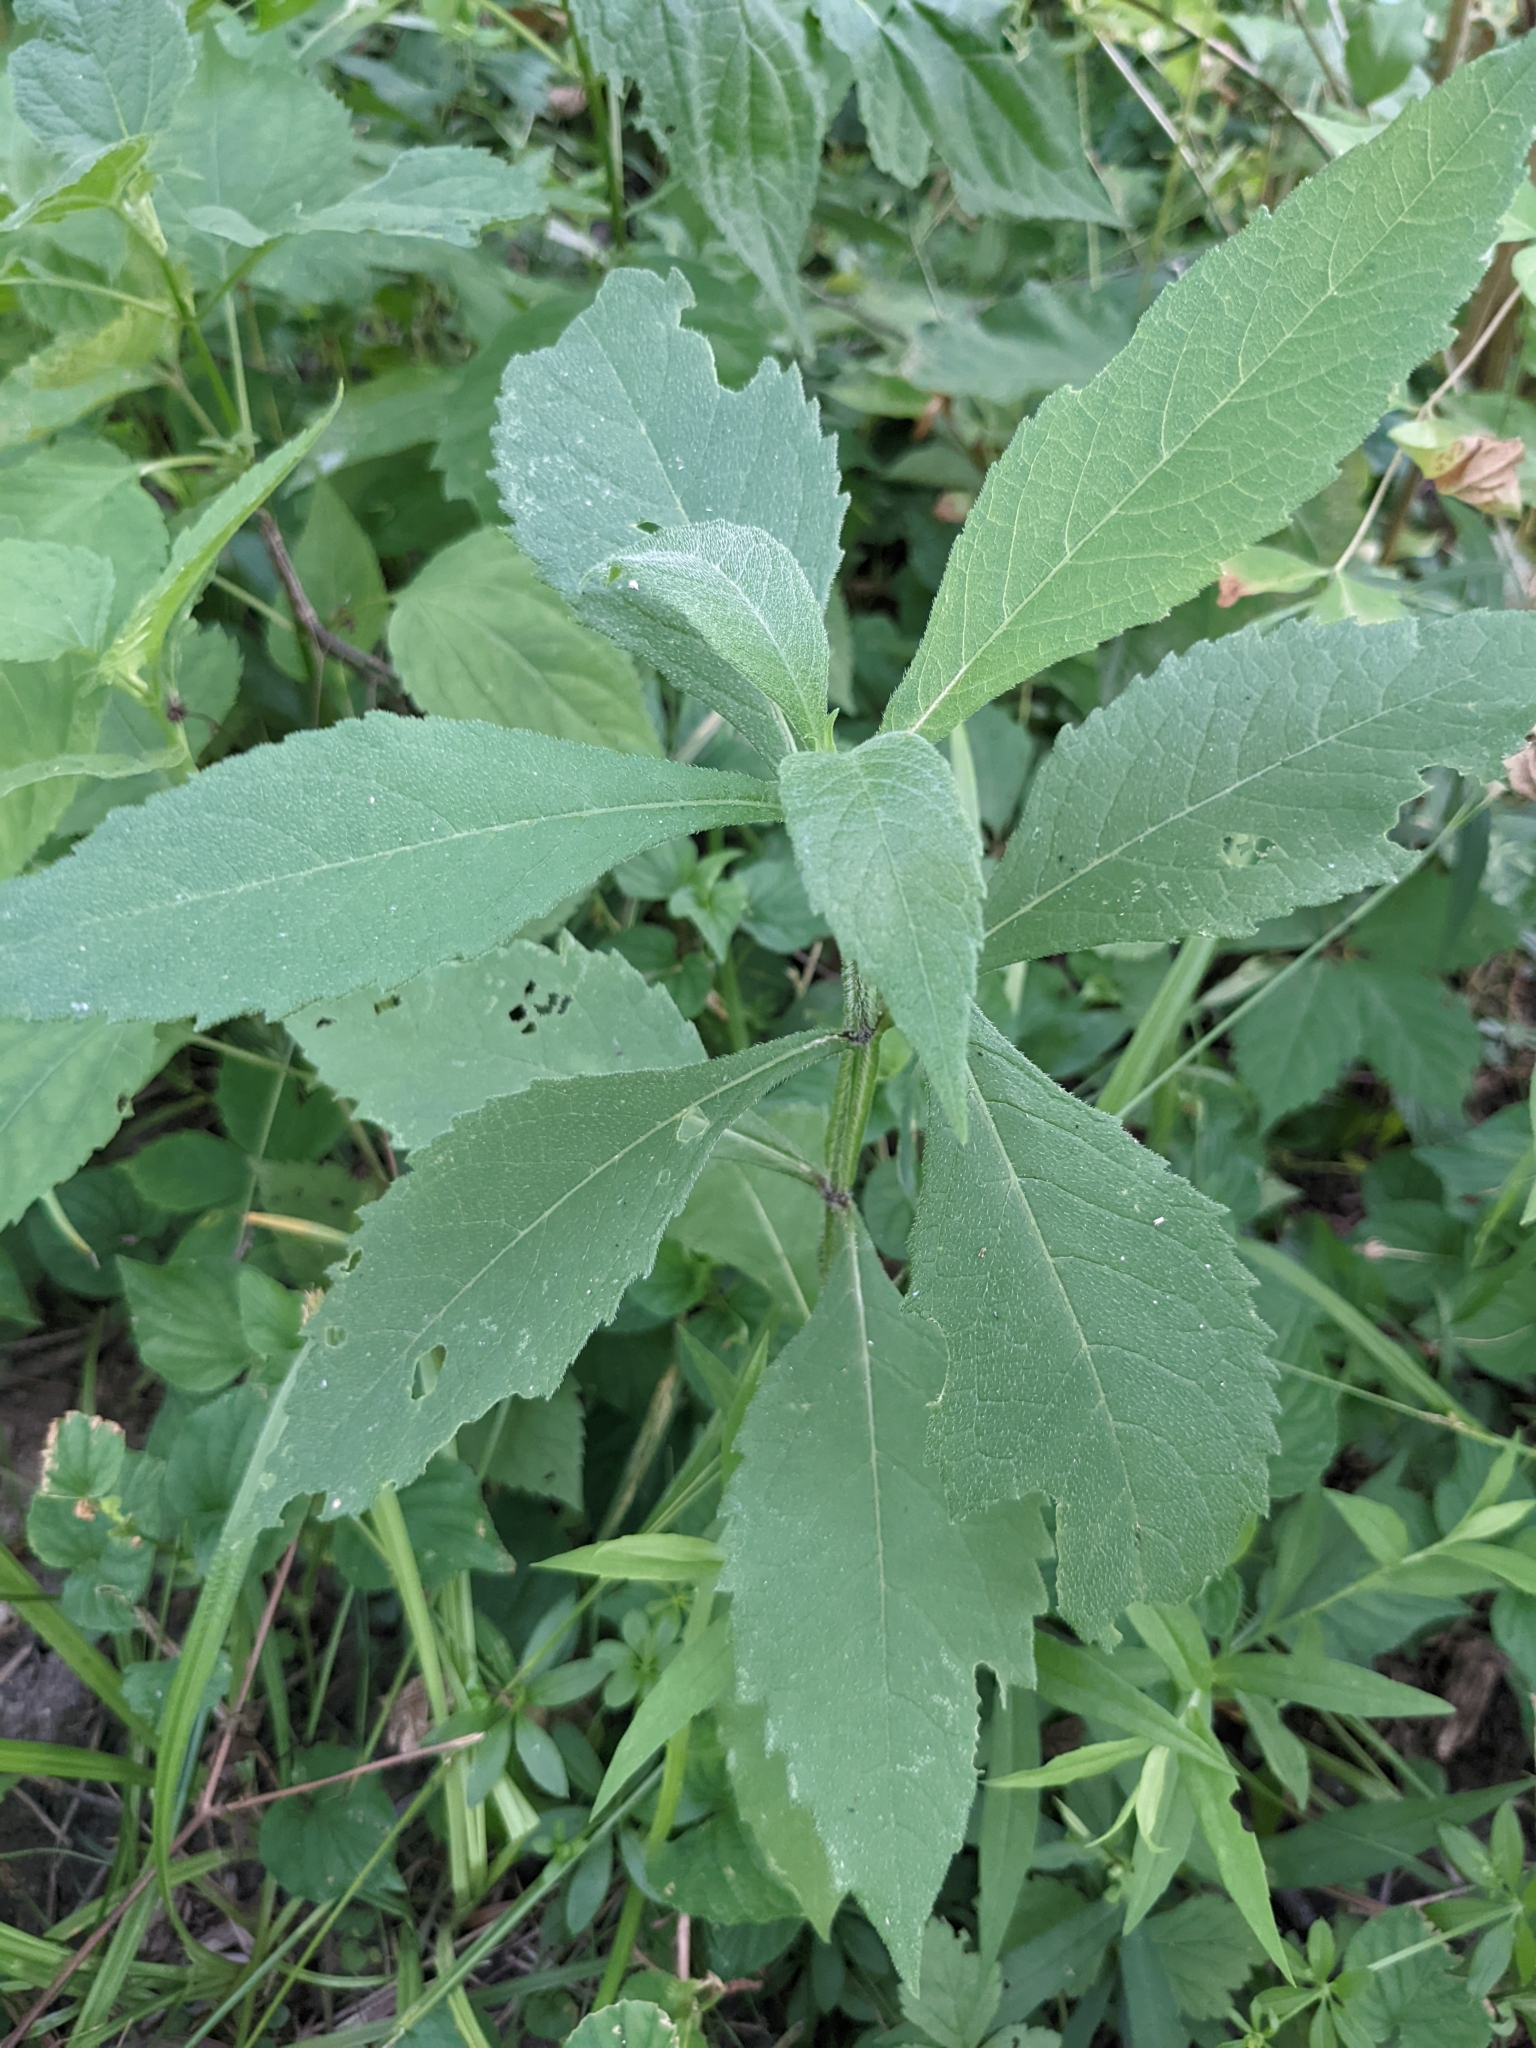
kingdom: Plantae
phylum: Tracheophyta
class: Magnoliopsida
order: Asterales
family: Asteraceae
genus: Verbesina
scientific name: Verbesina alternifolia
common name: Wingstem
